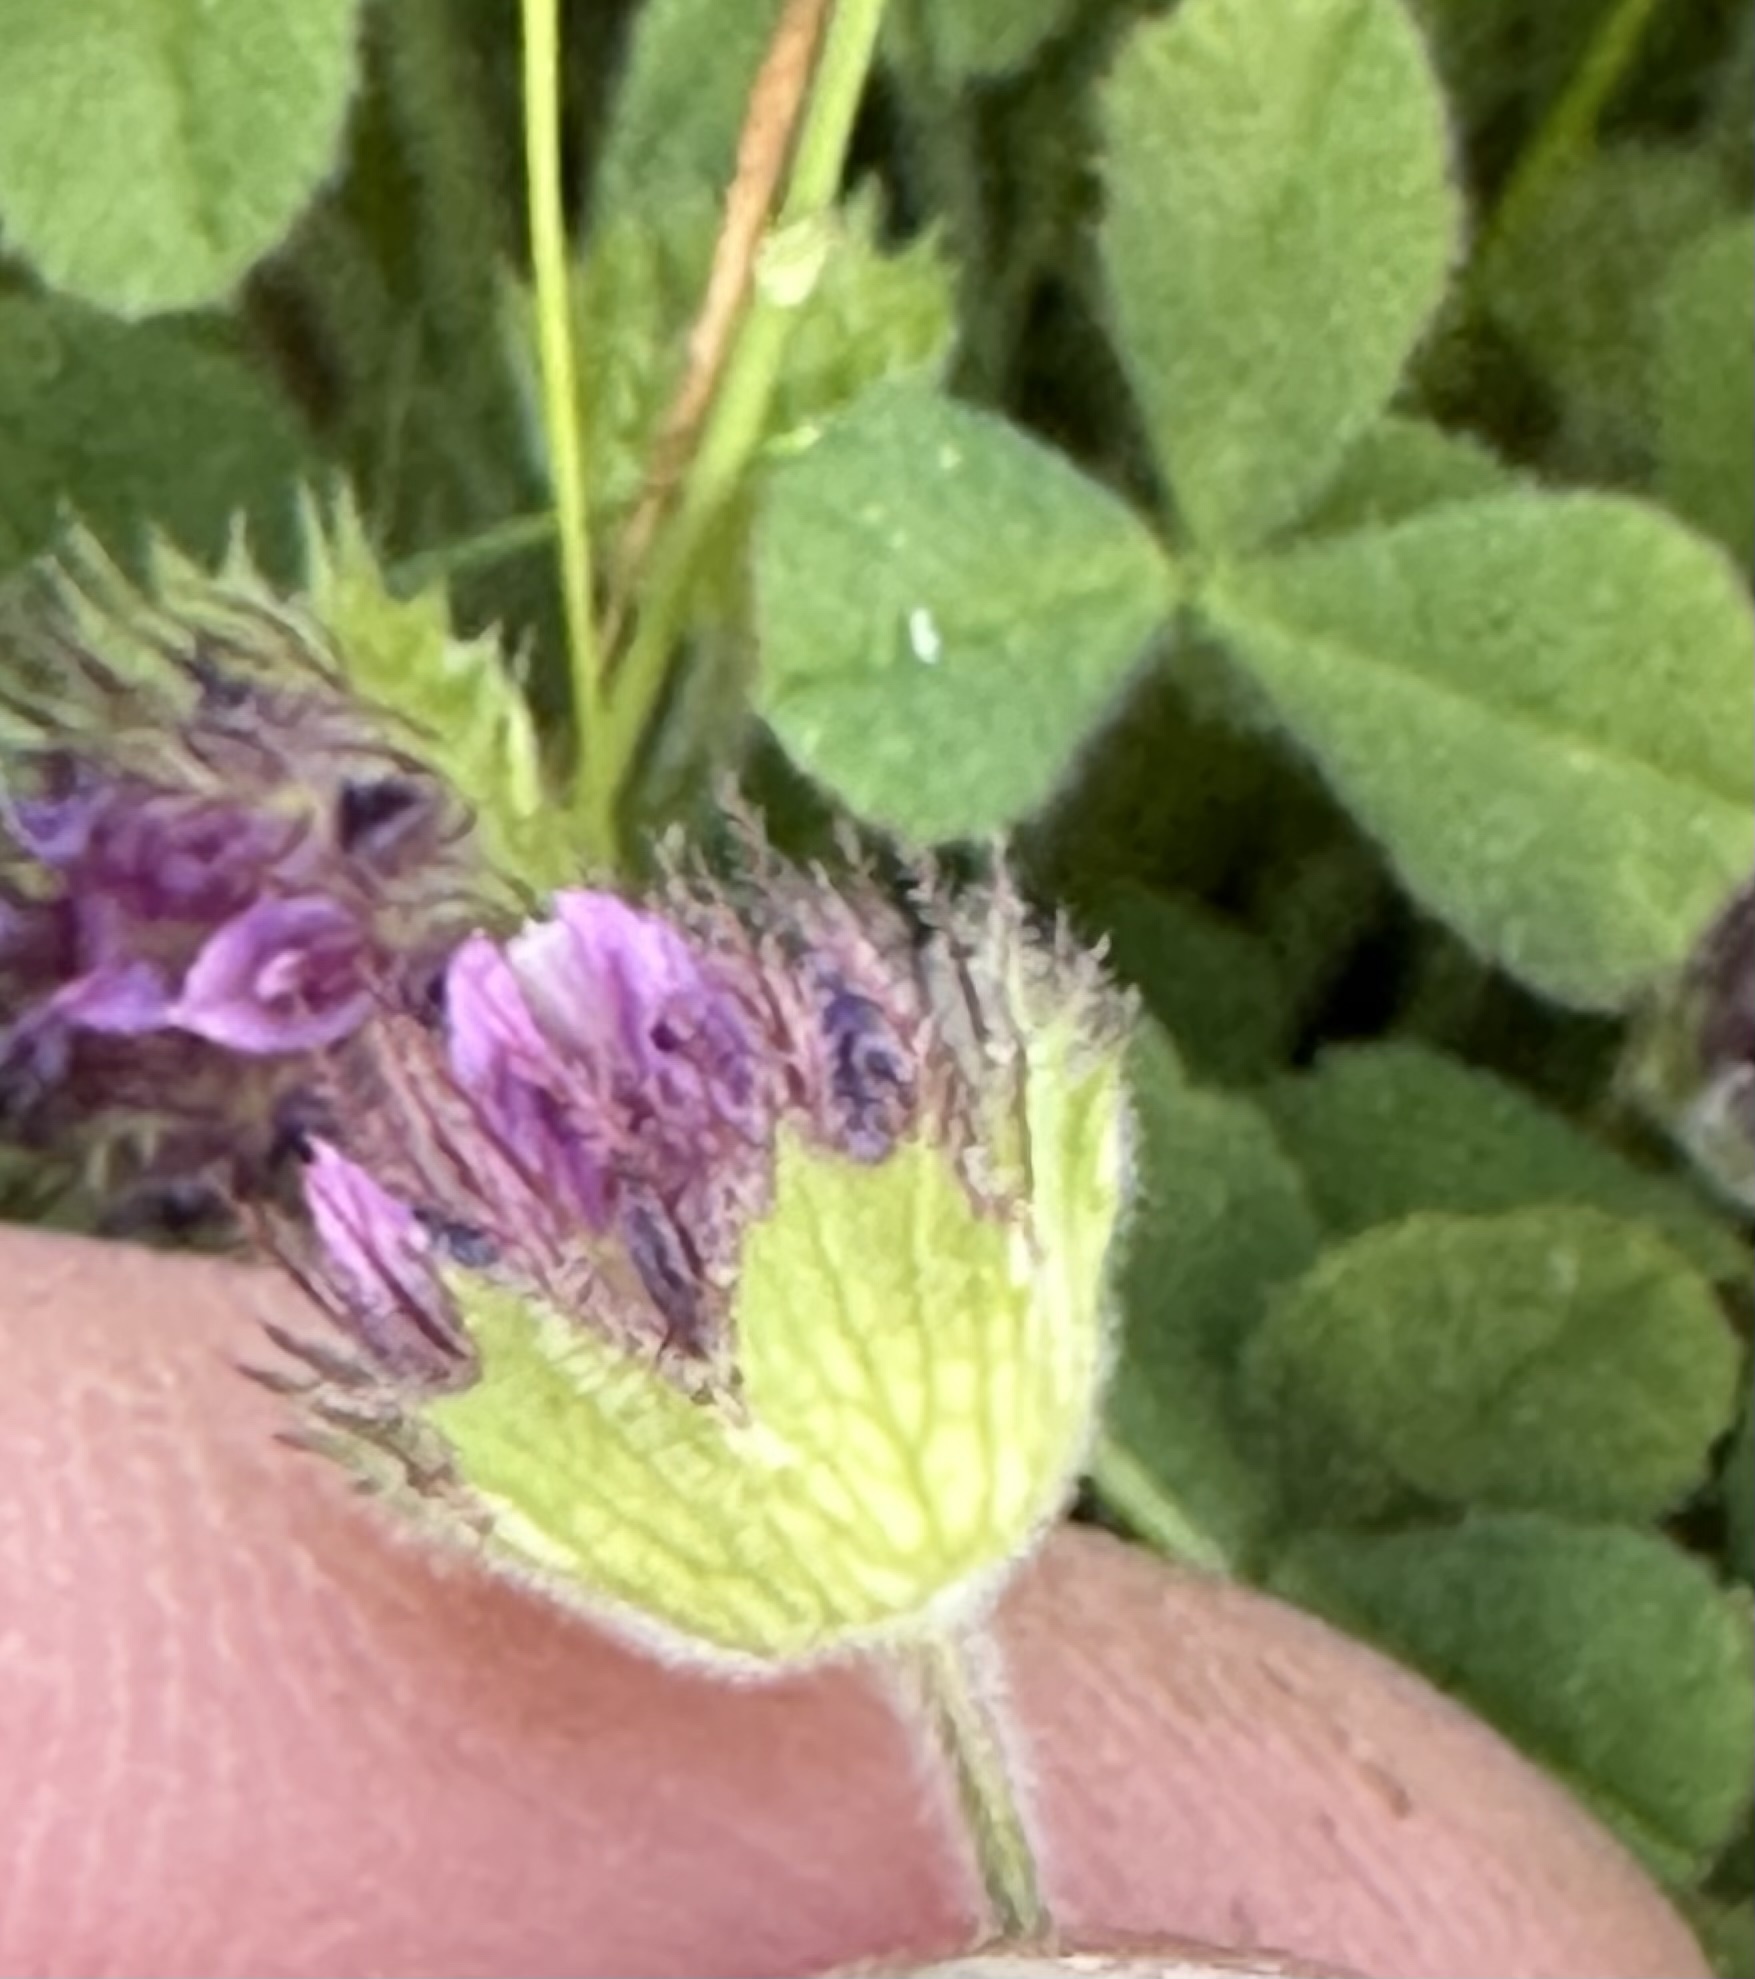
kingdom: Plantae
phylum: Tracheophyta
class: Magnoliopsida
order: Fabales
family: Fabaceae
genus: Trifolium
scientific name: Trifolium barbigerum
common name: Bearded clover
